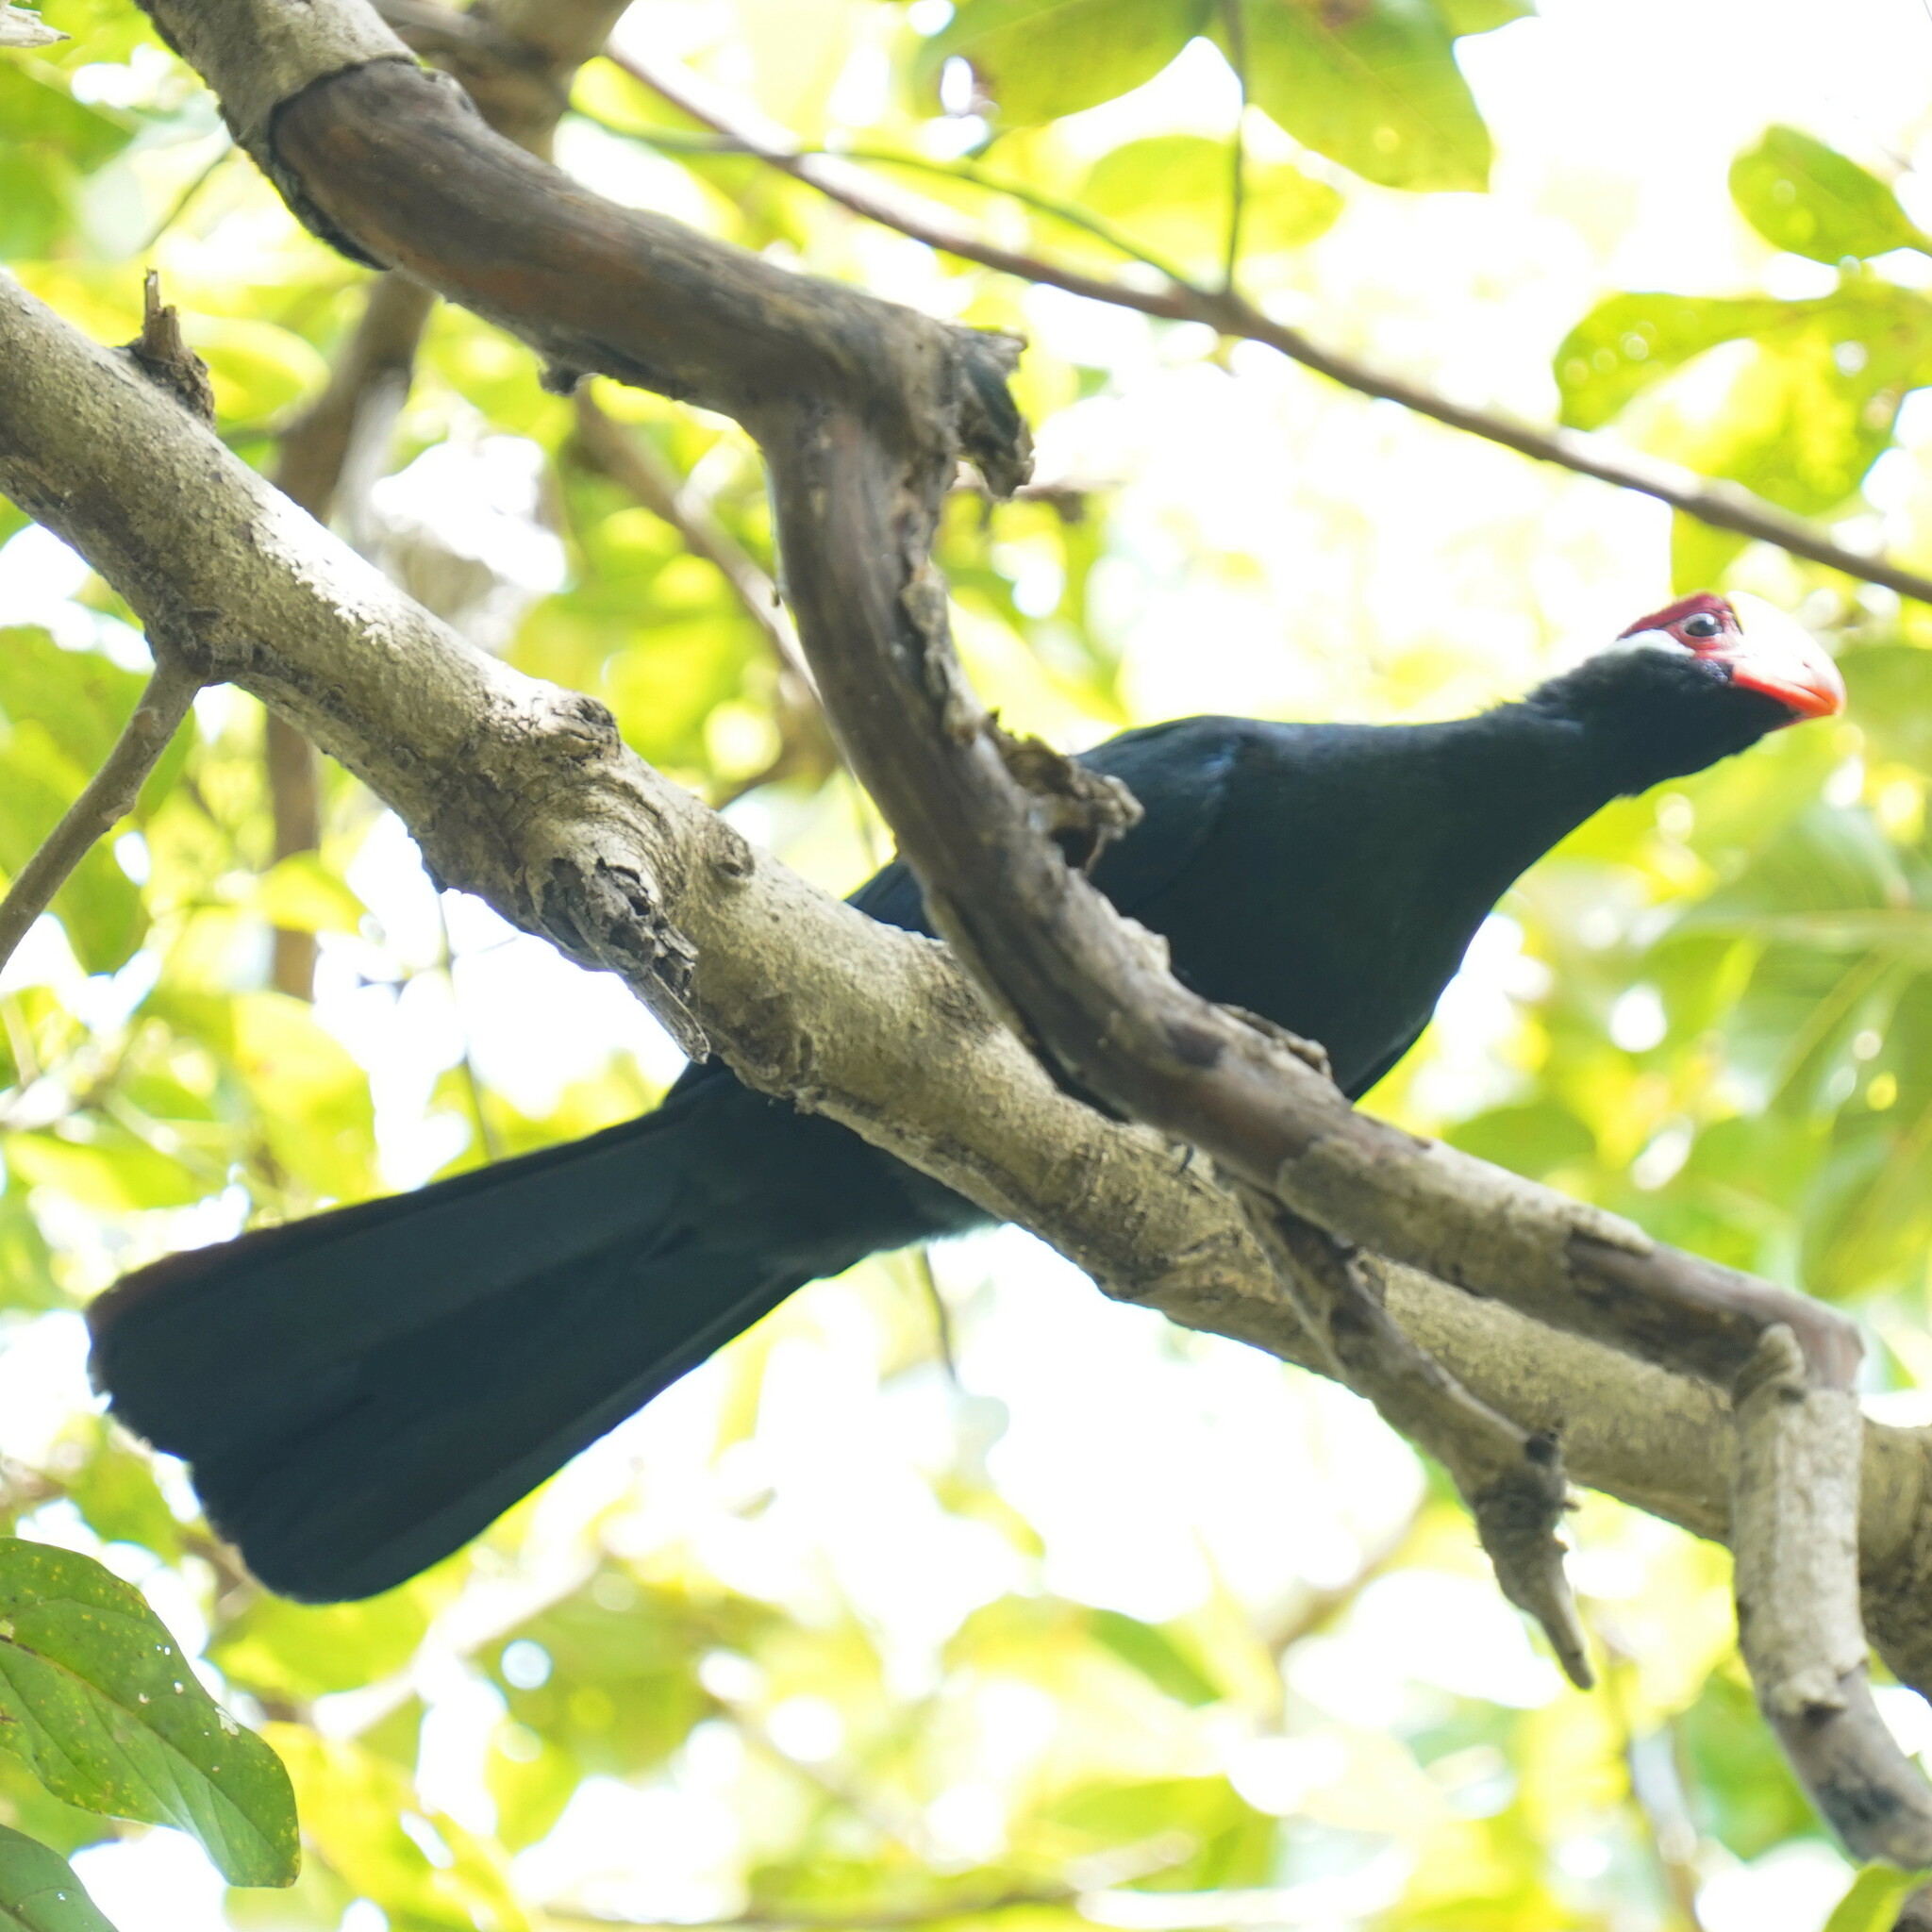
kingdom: Animalia
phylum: Chordata
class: Aves
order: Musophagiformes
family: Musophagidae
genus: Musophaga
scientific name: Musophaga violacea
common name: Violet turaco
